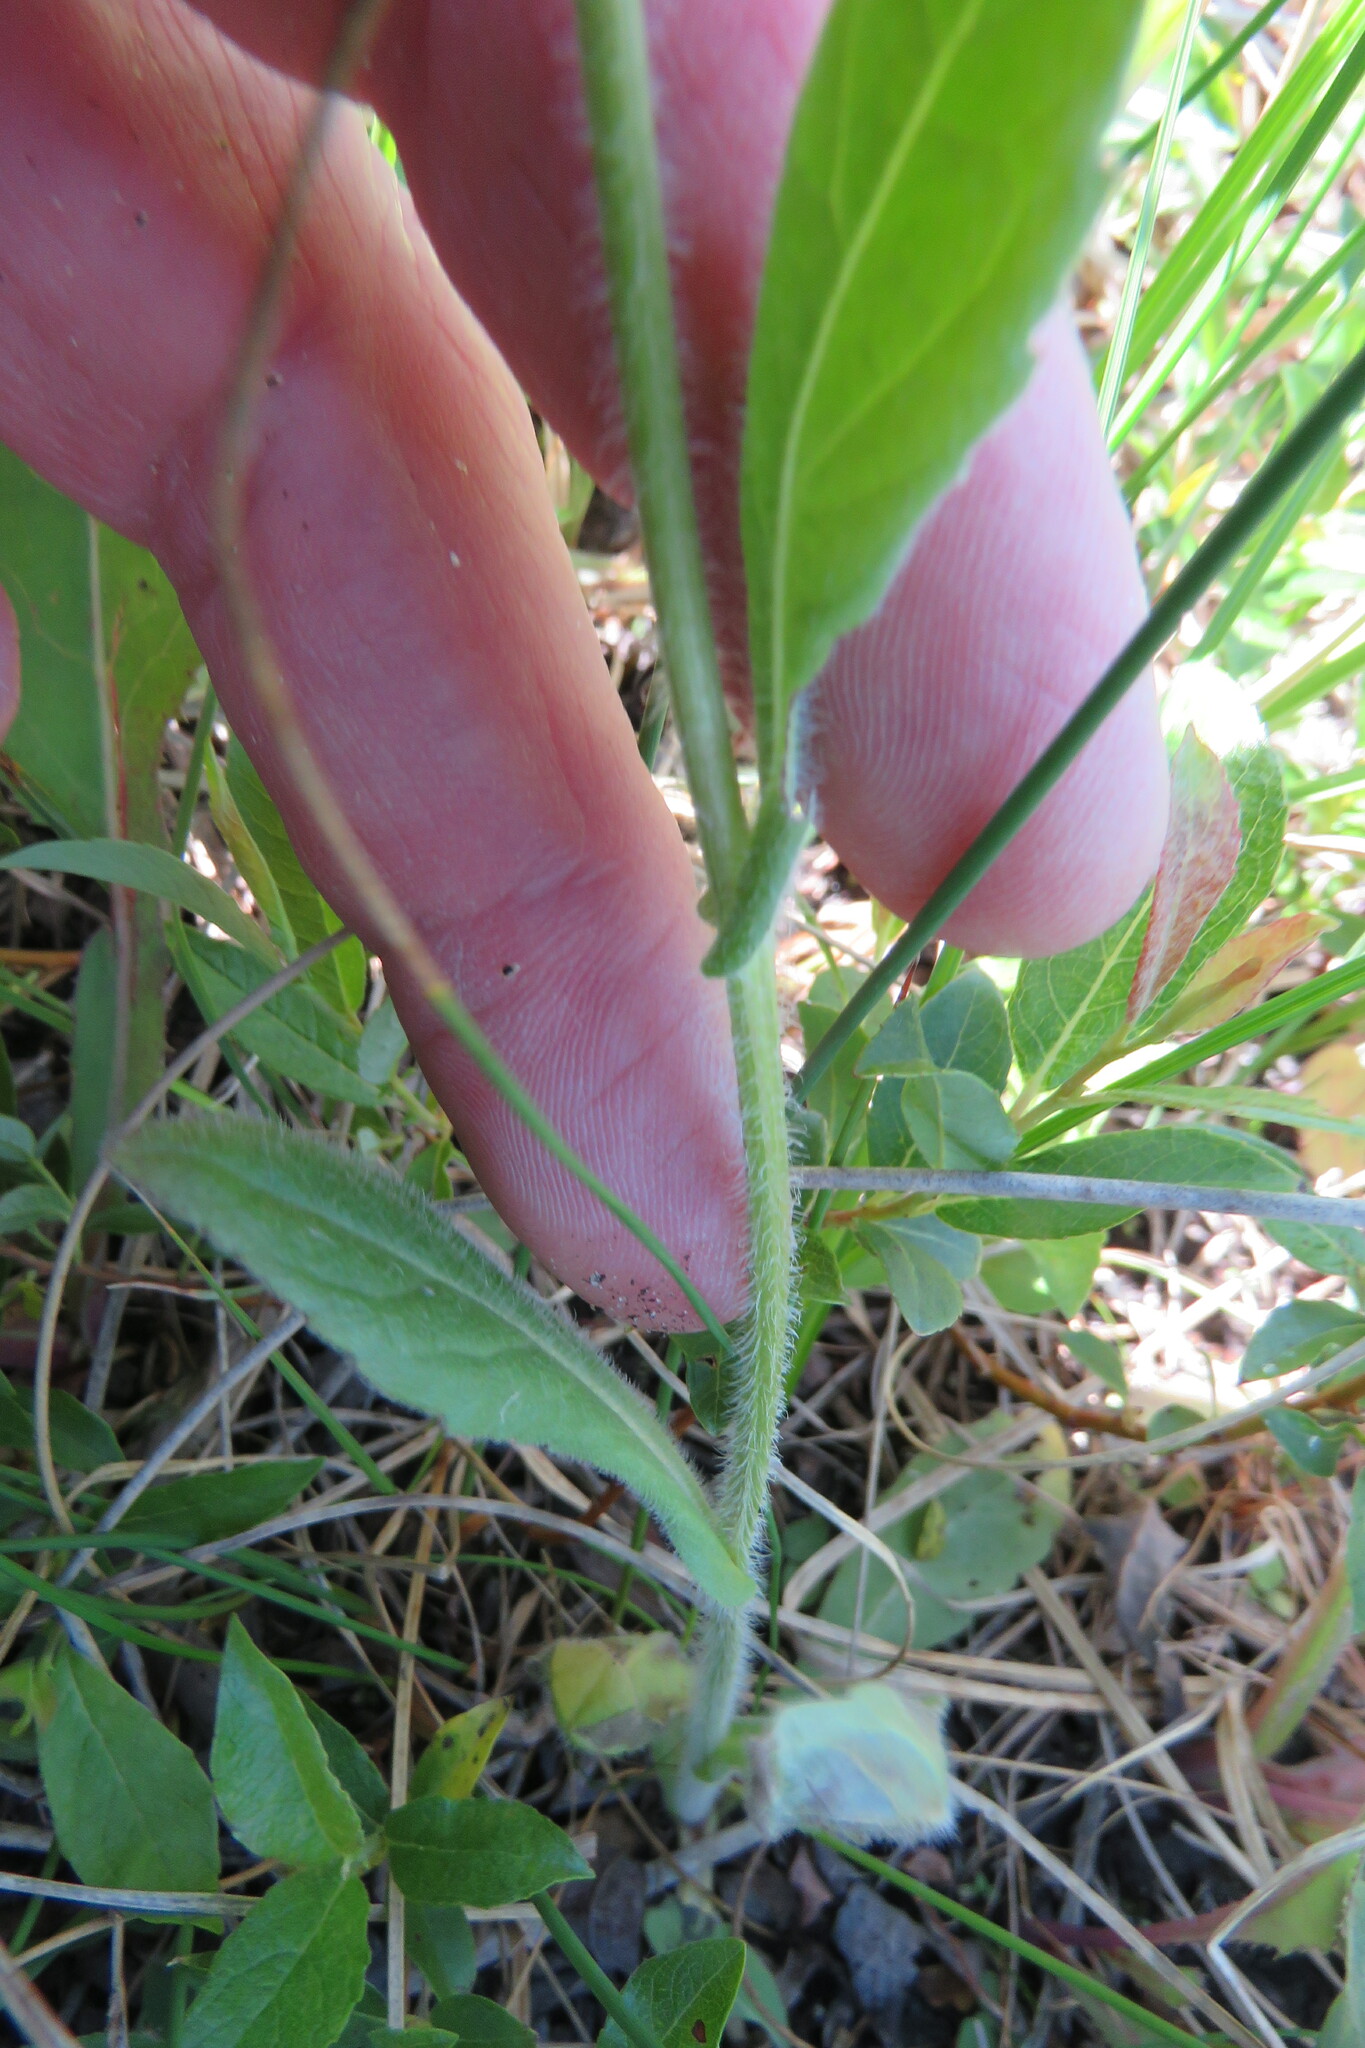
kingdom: Plantae
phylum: Tracheophyta
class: Magnoliopsida
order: Asterales
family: Asteraceae
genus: Erigeron
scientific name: Erigeron philadelphicus
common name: Robin's-plantain
